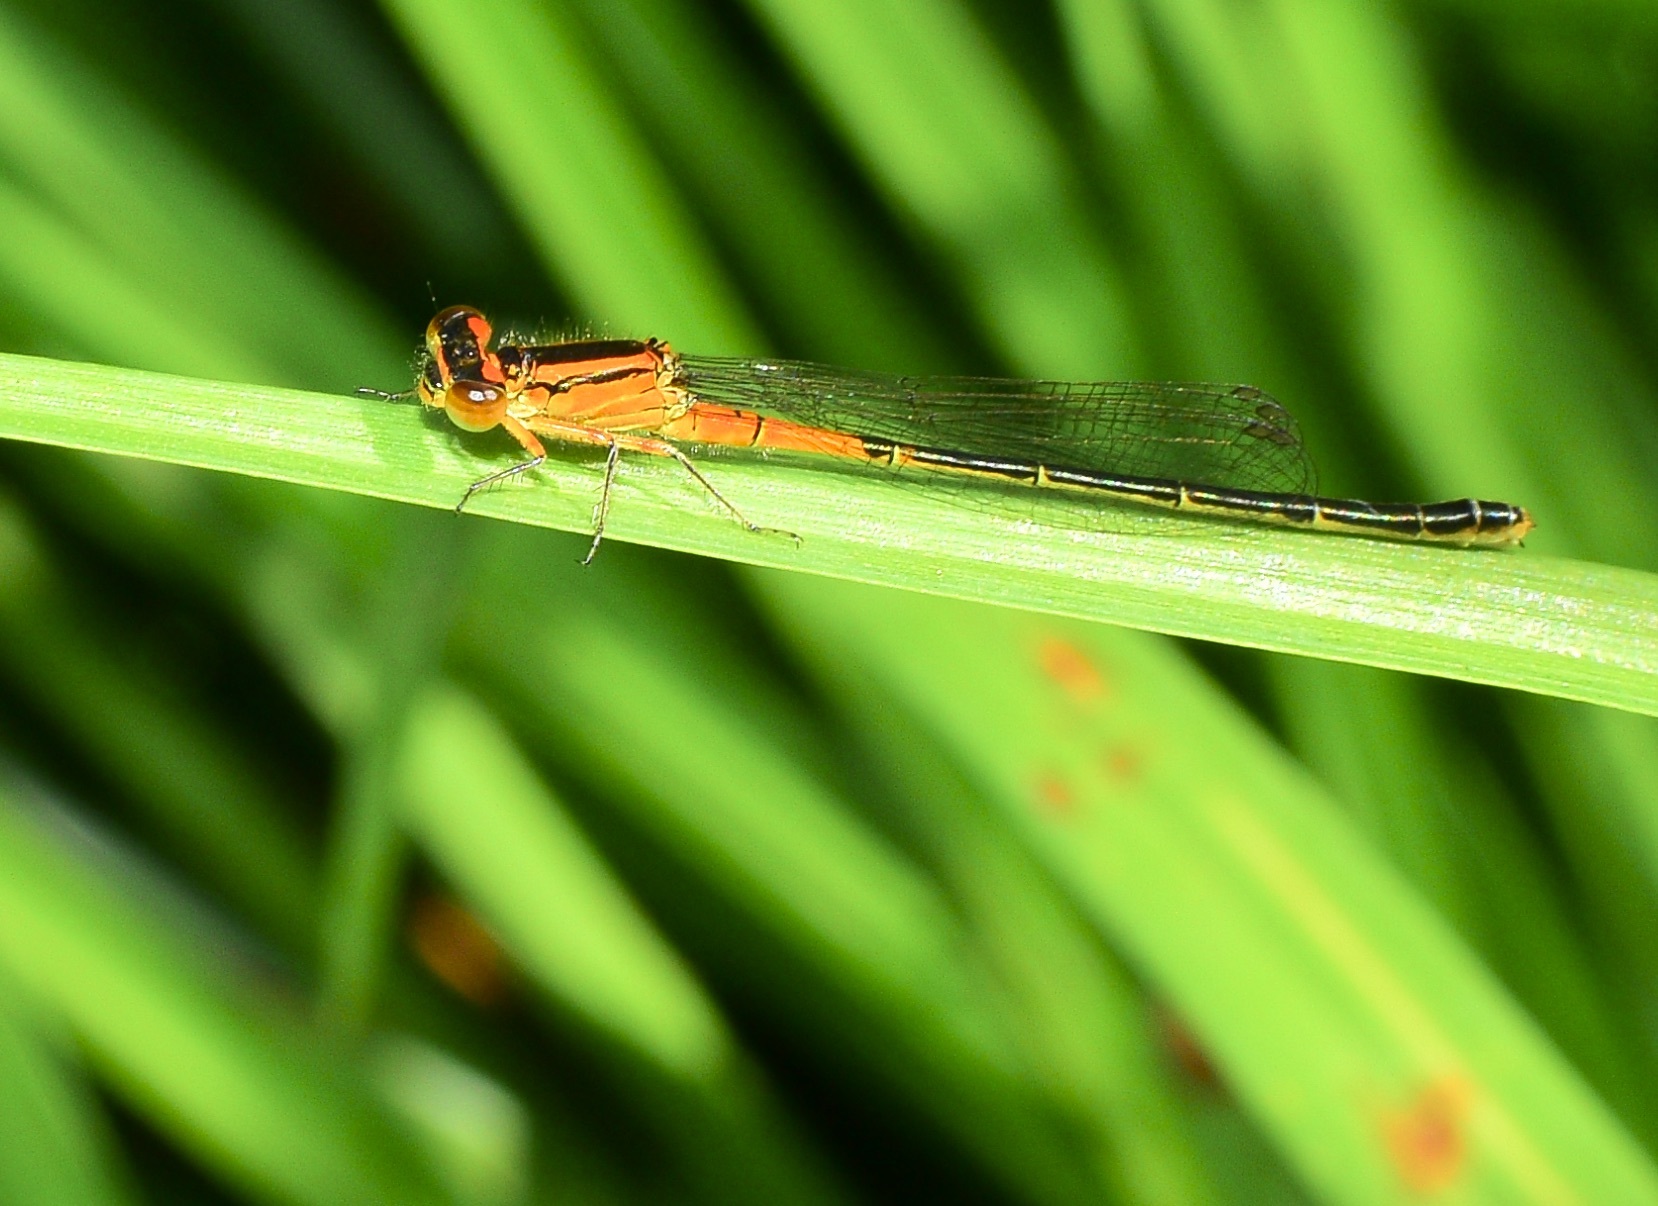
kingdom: Animalia
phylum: Arthropoda
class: Insecta
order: Odonata
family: Coenagrionidae
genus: Ischnura
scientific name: Ischnura verticalis
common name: Eastern forktail
